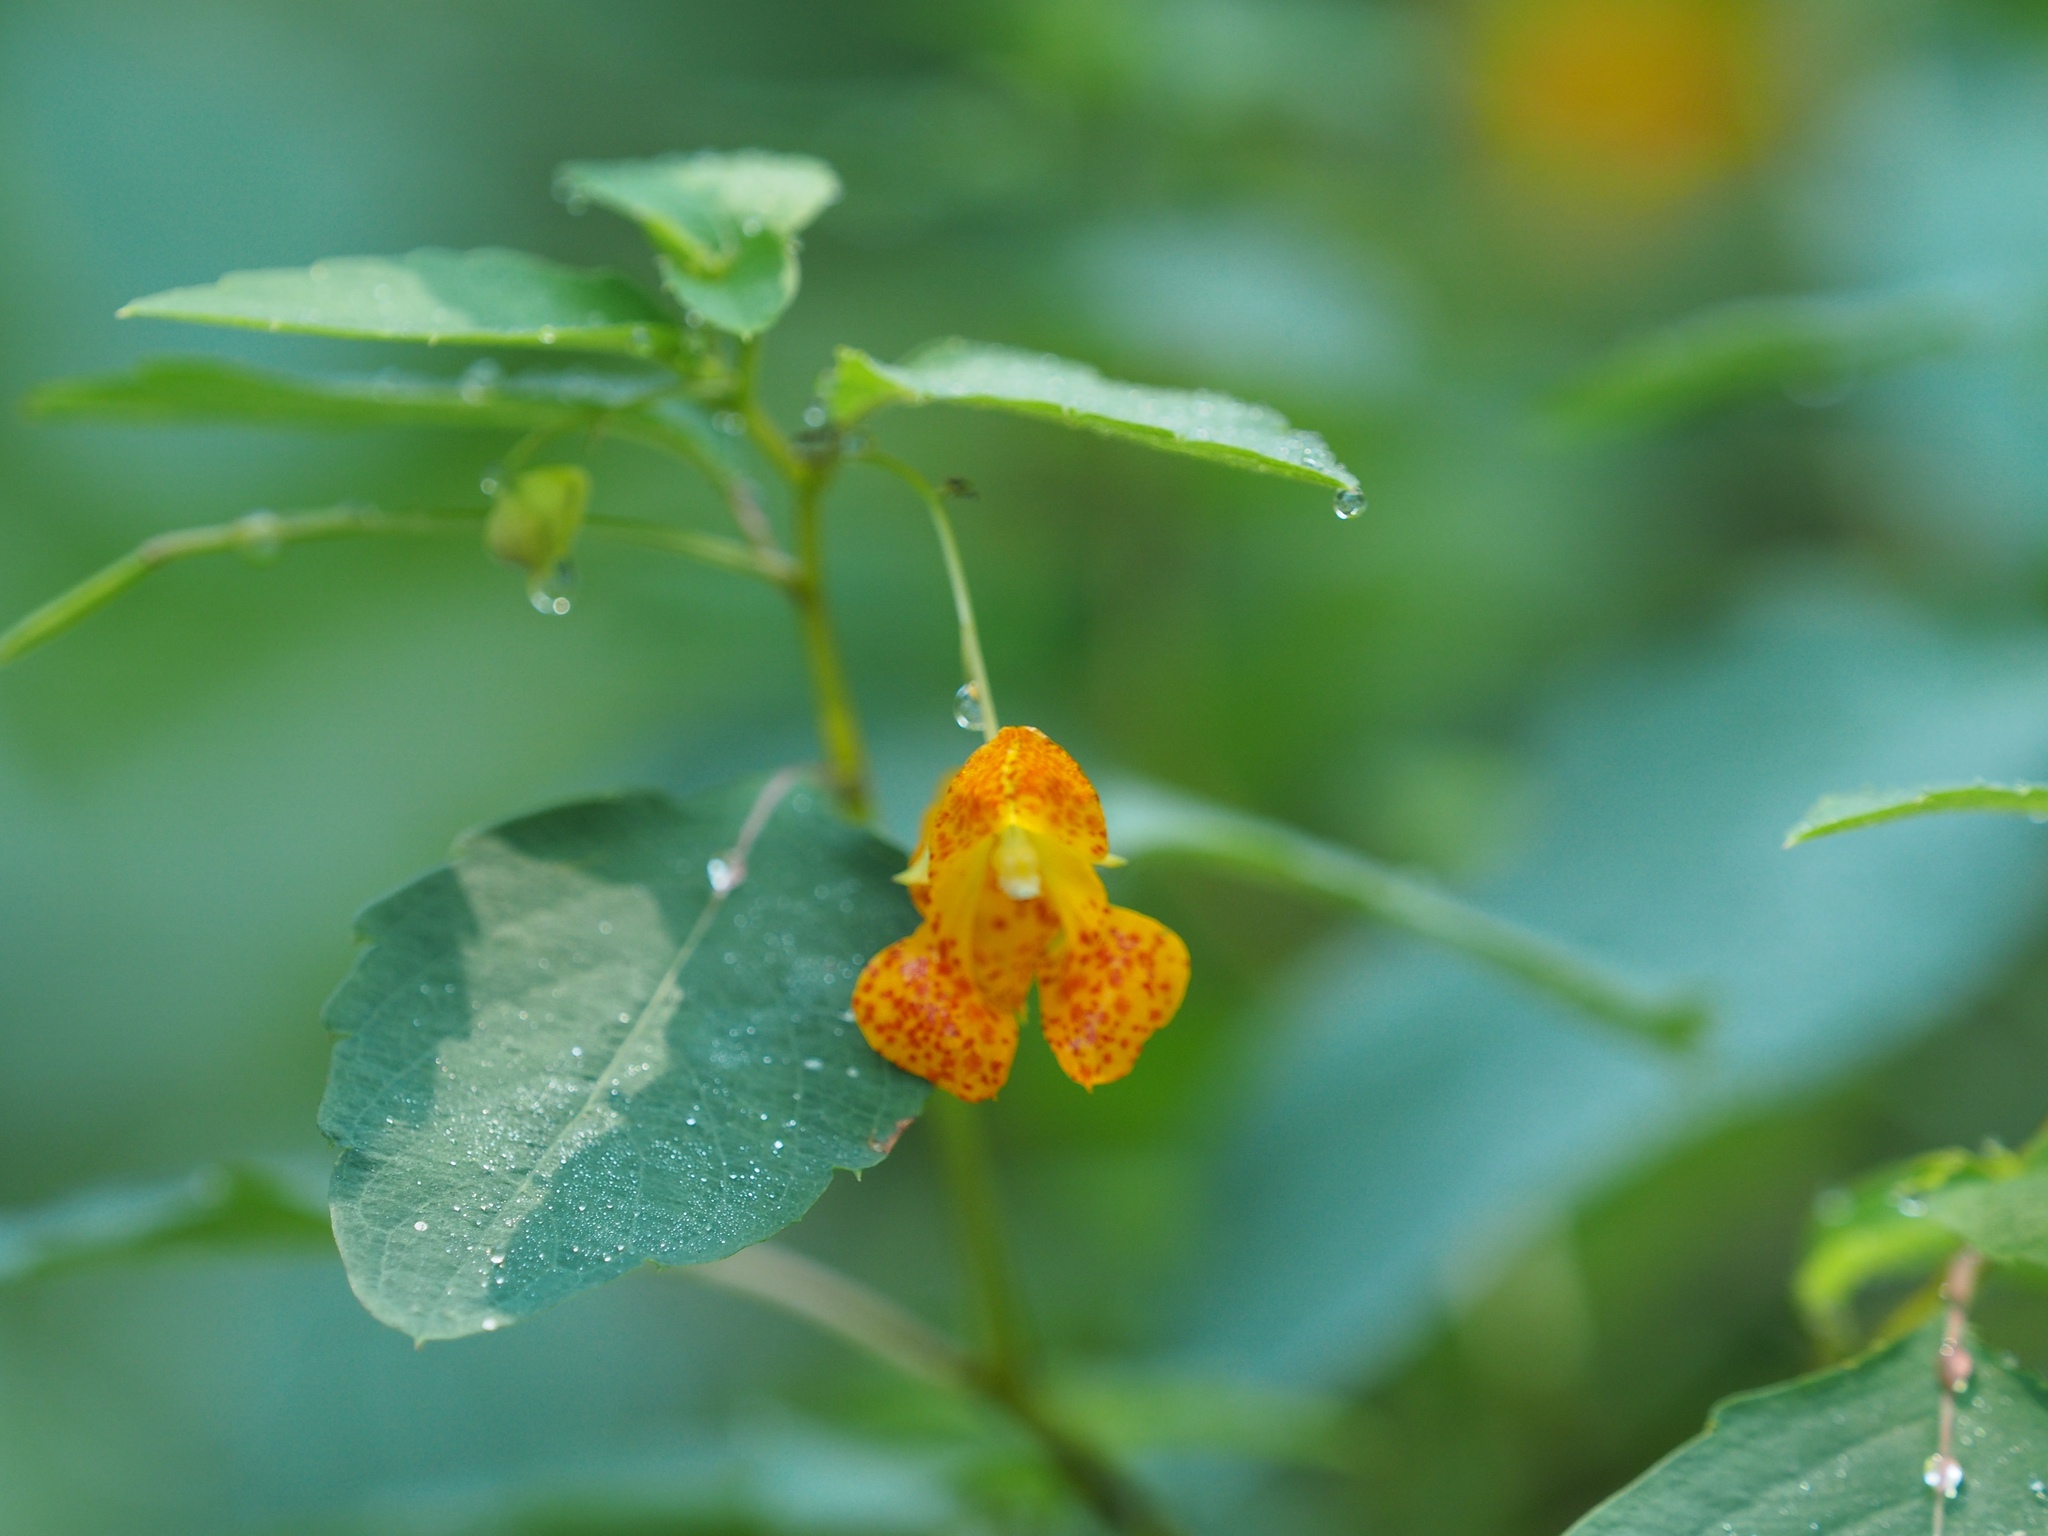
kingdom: Plantae
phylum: Tracheophyta
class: Magnoliopsida
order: Ericales
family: Balsaminaceae
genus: Impatiens
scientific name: Impatiens capensis
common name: Orange balsam
